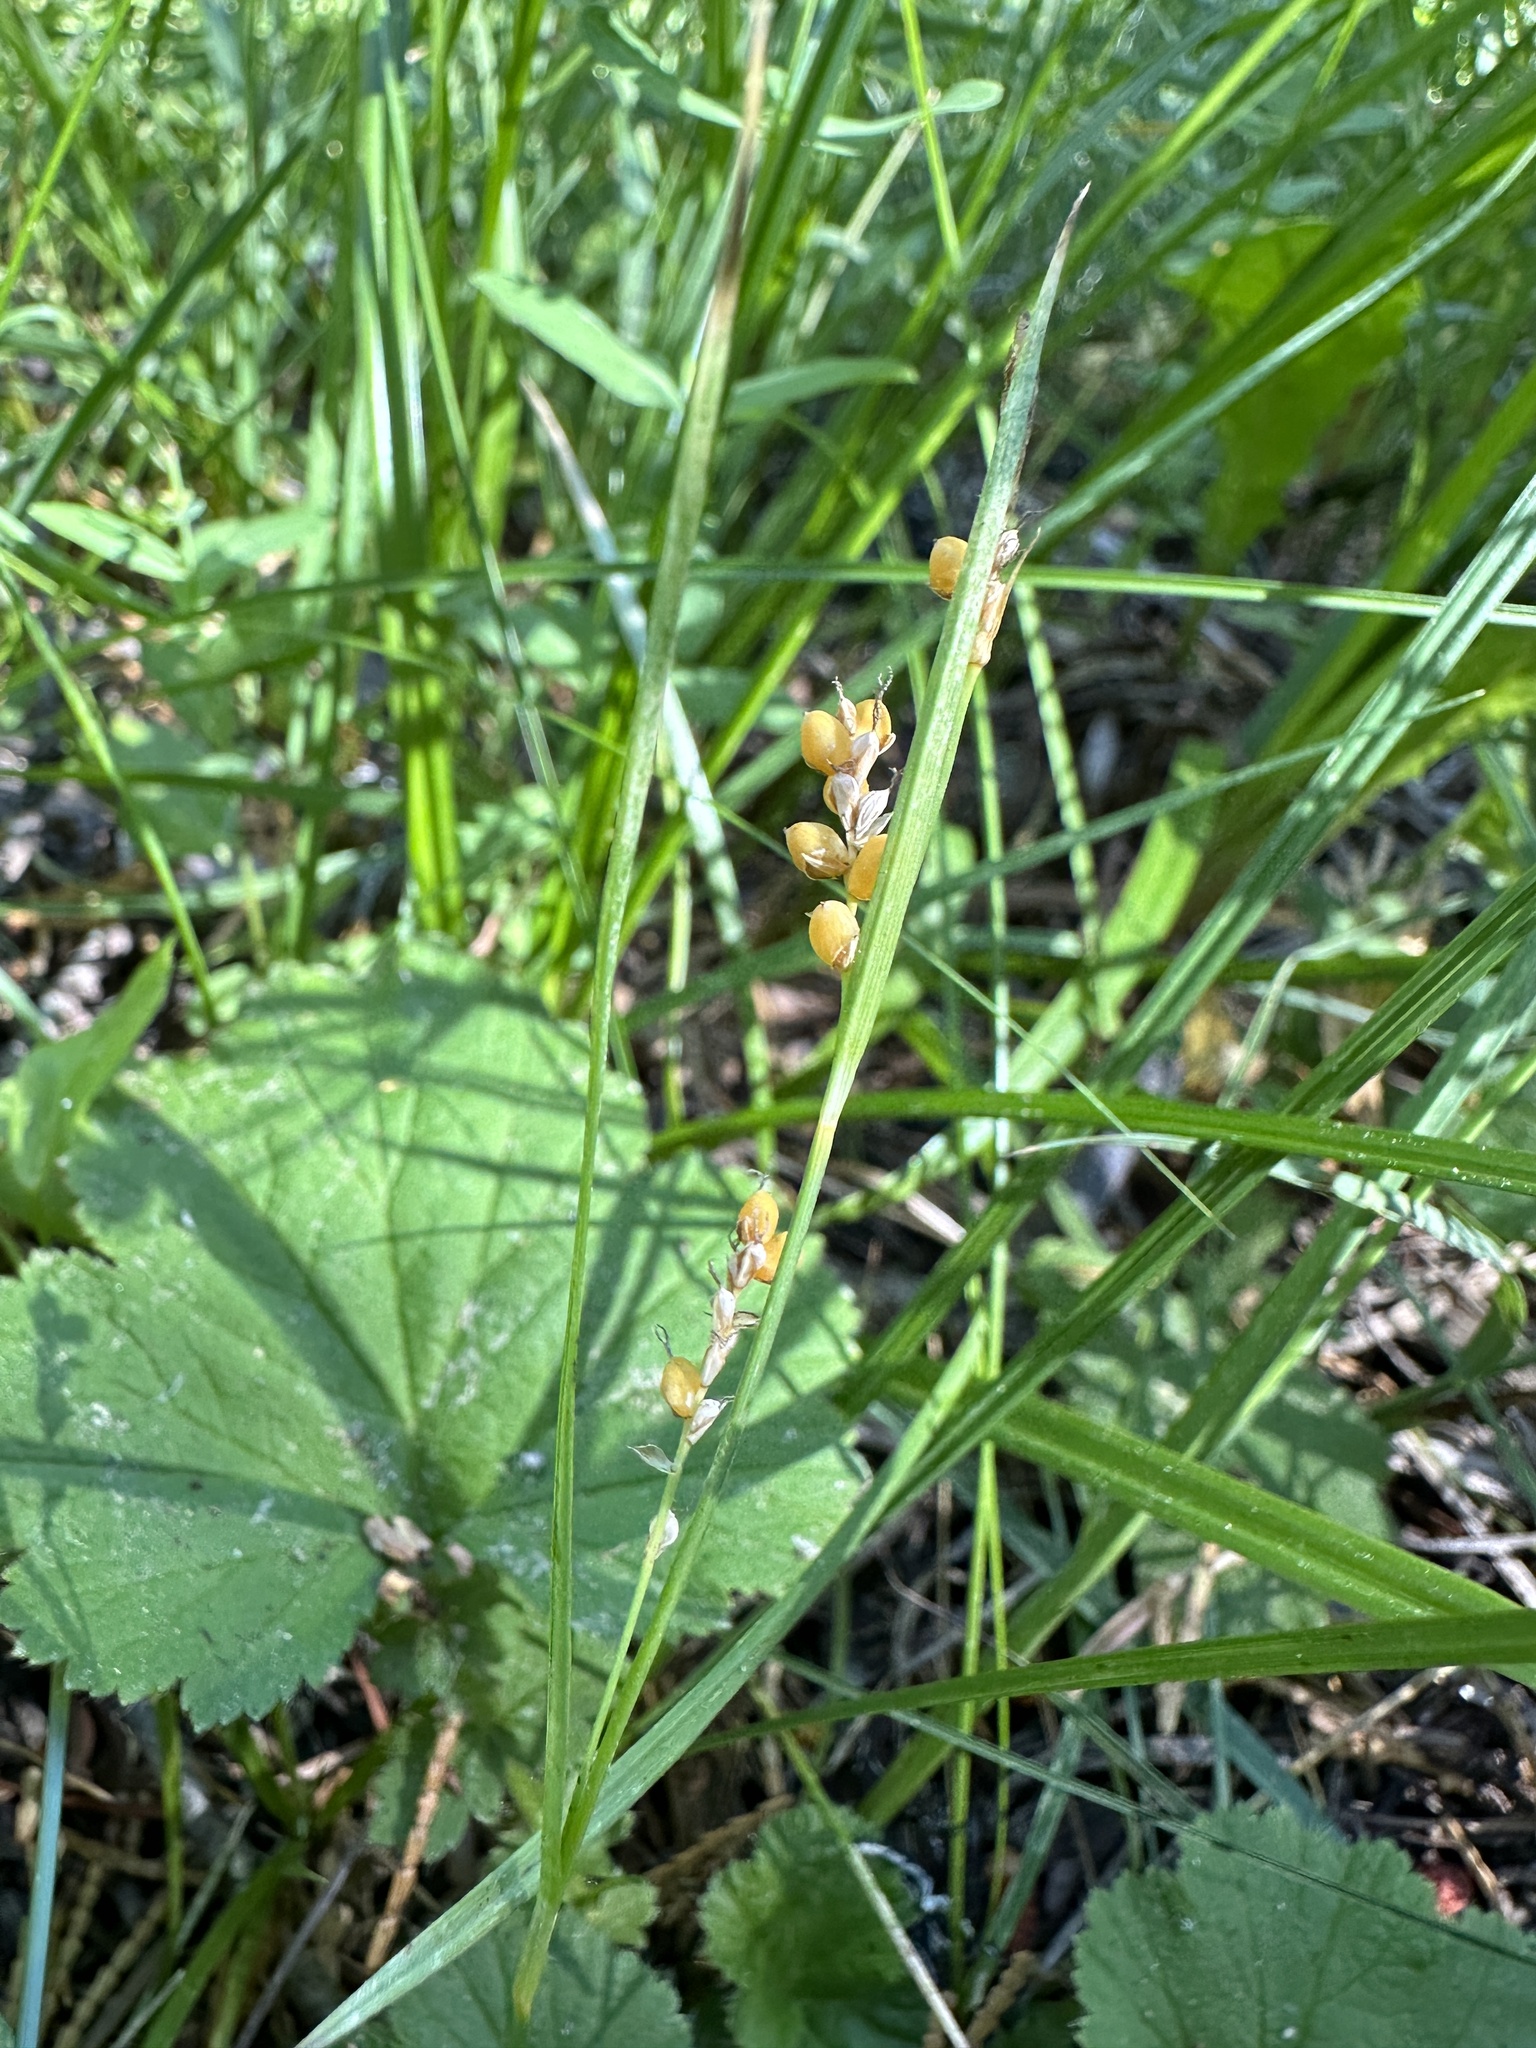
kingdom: Plantae
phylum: Tracheophyta
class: Liliopsida
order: Poales
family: Cyperaceae
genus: Carex
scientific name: Carex aurea
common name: Golden sedge
